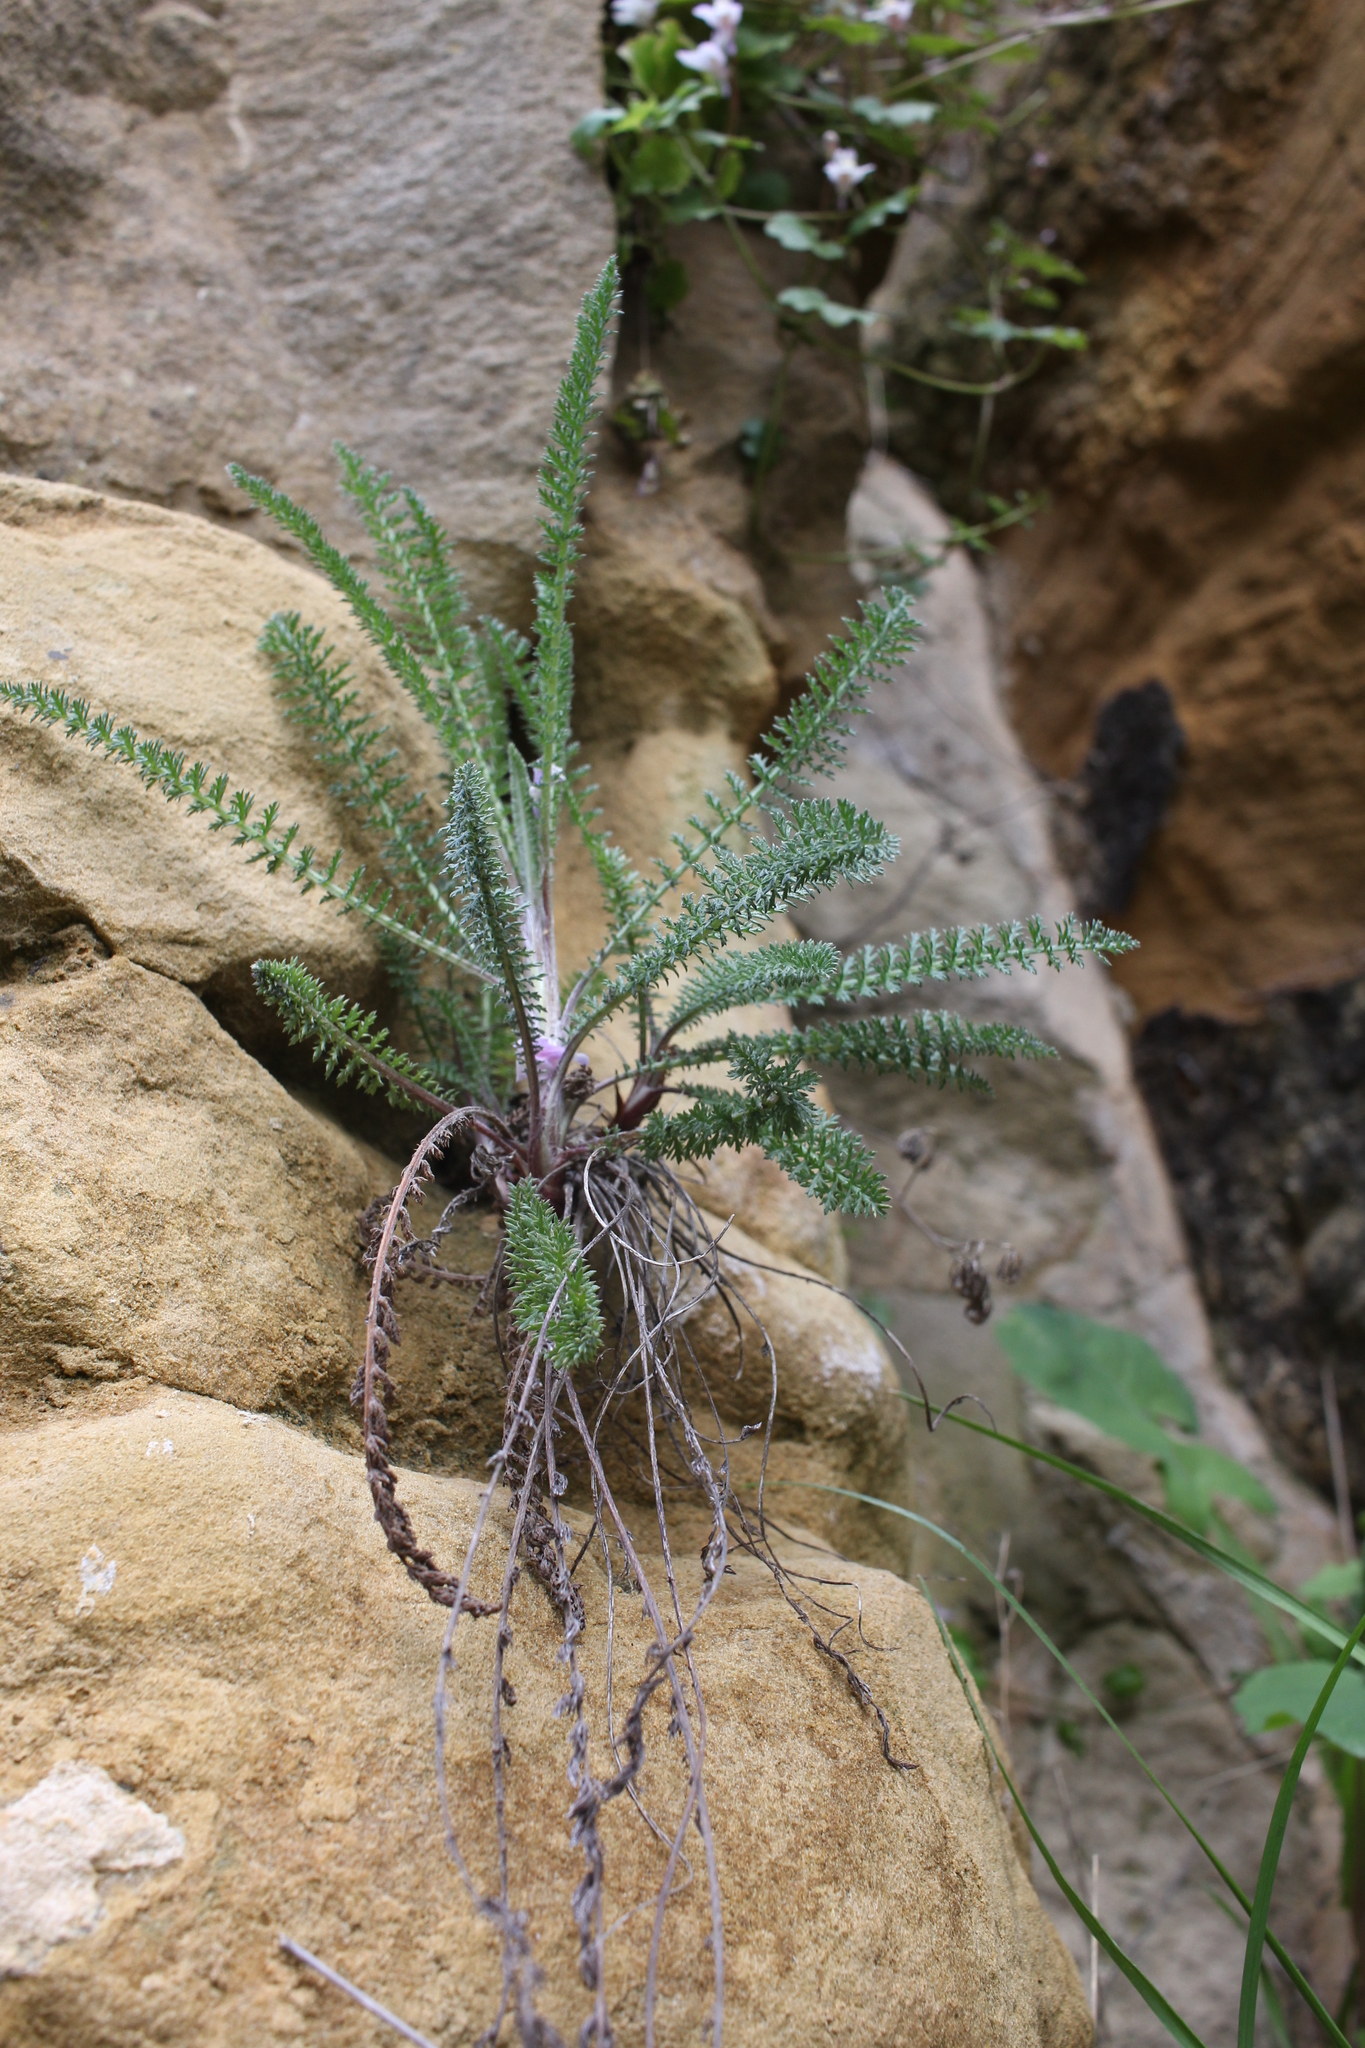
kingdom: Plantae
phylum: Tracheophyta
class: Magnoliopsida
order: Asterales
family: Asteraceae
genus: Achillea
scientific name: Achillea millefolium
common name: Yarrow
